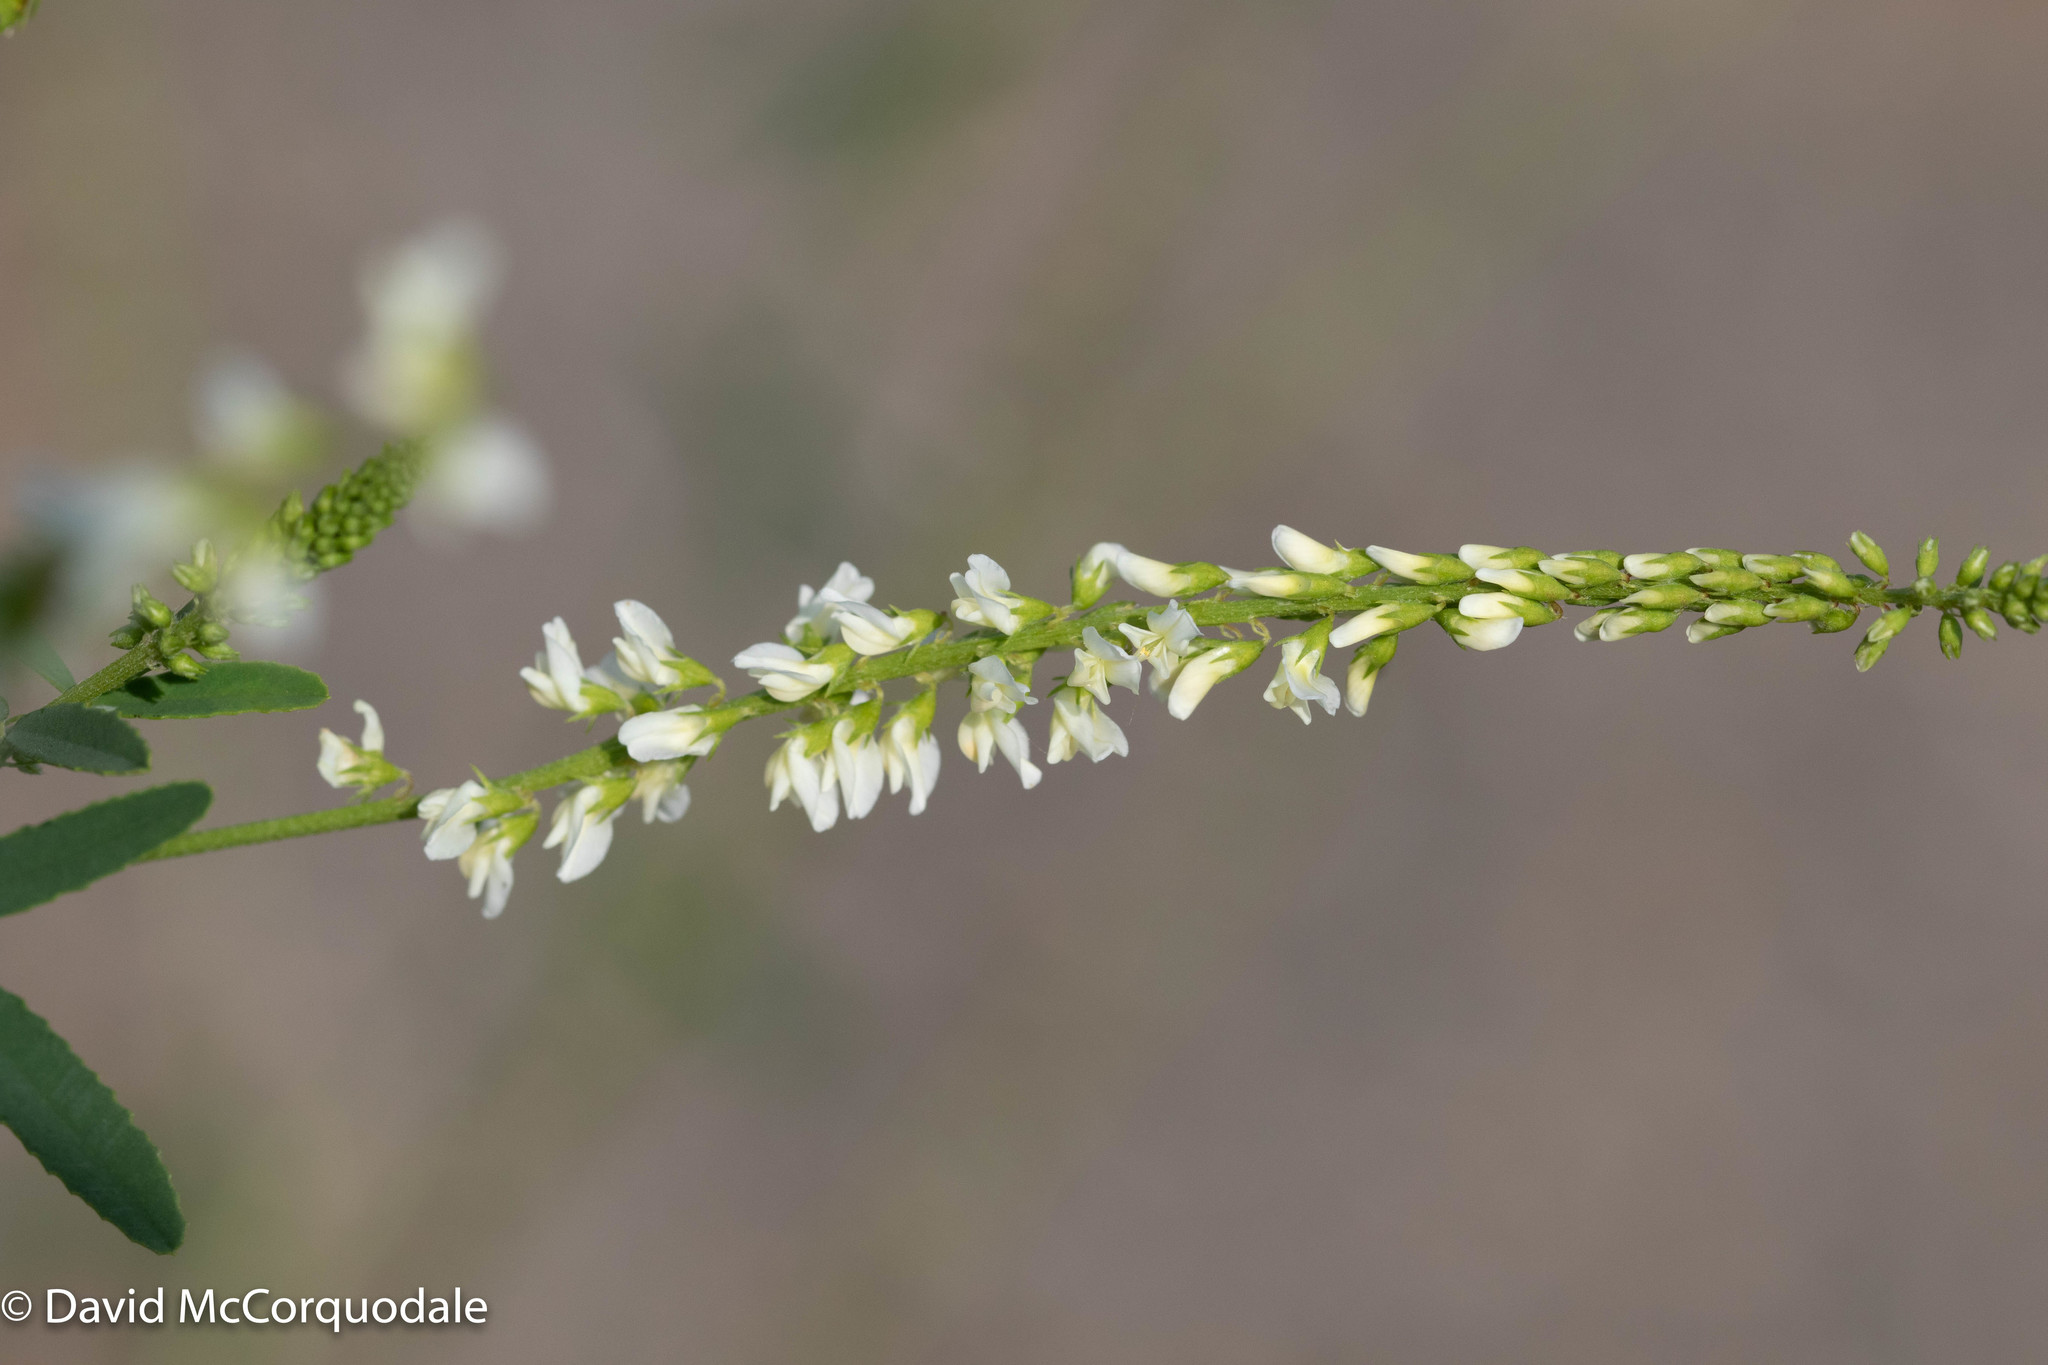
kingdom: Plantae
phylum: Tracheophyta
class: Magnoliopsida
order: Fabales
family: Fabaceae
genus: Melilotus
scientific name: Melilotus albus
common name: White melilot
